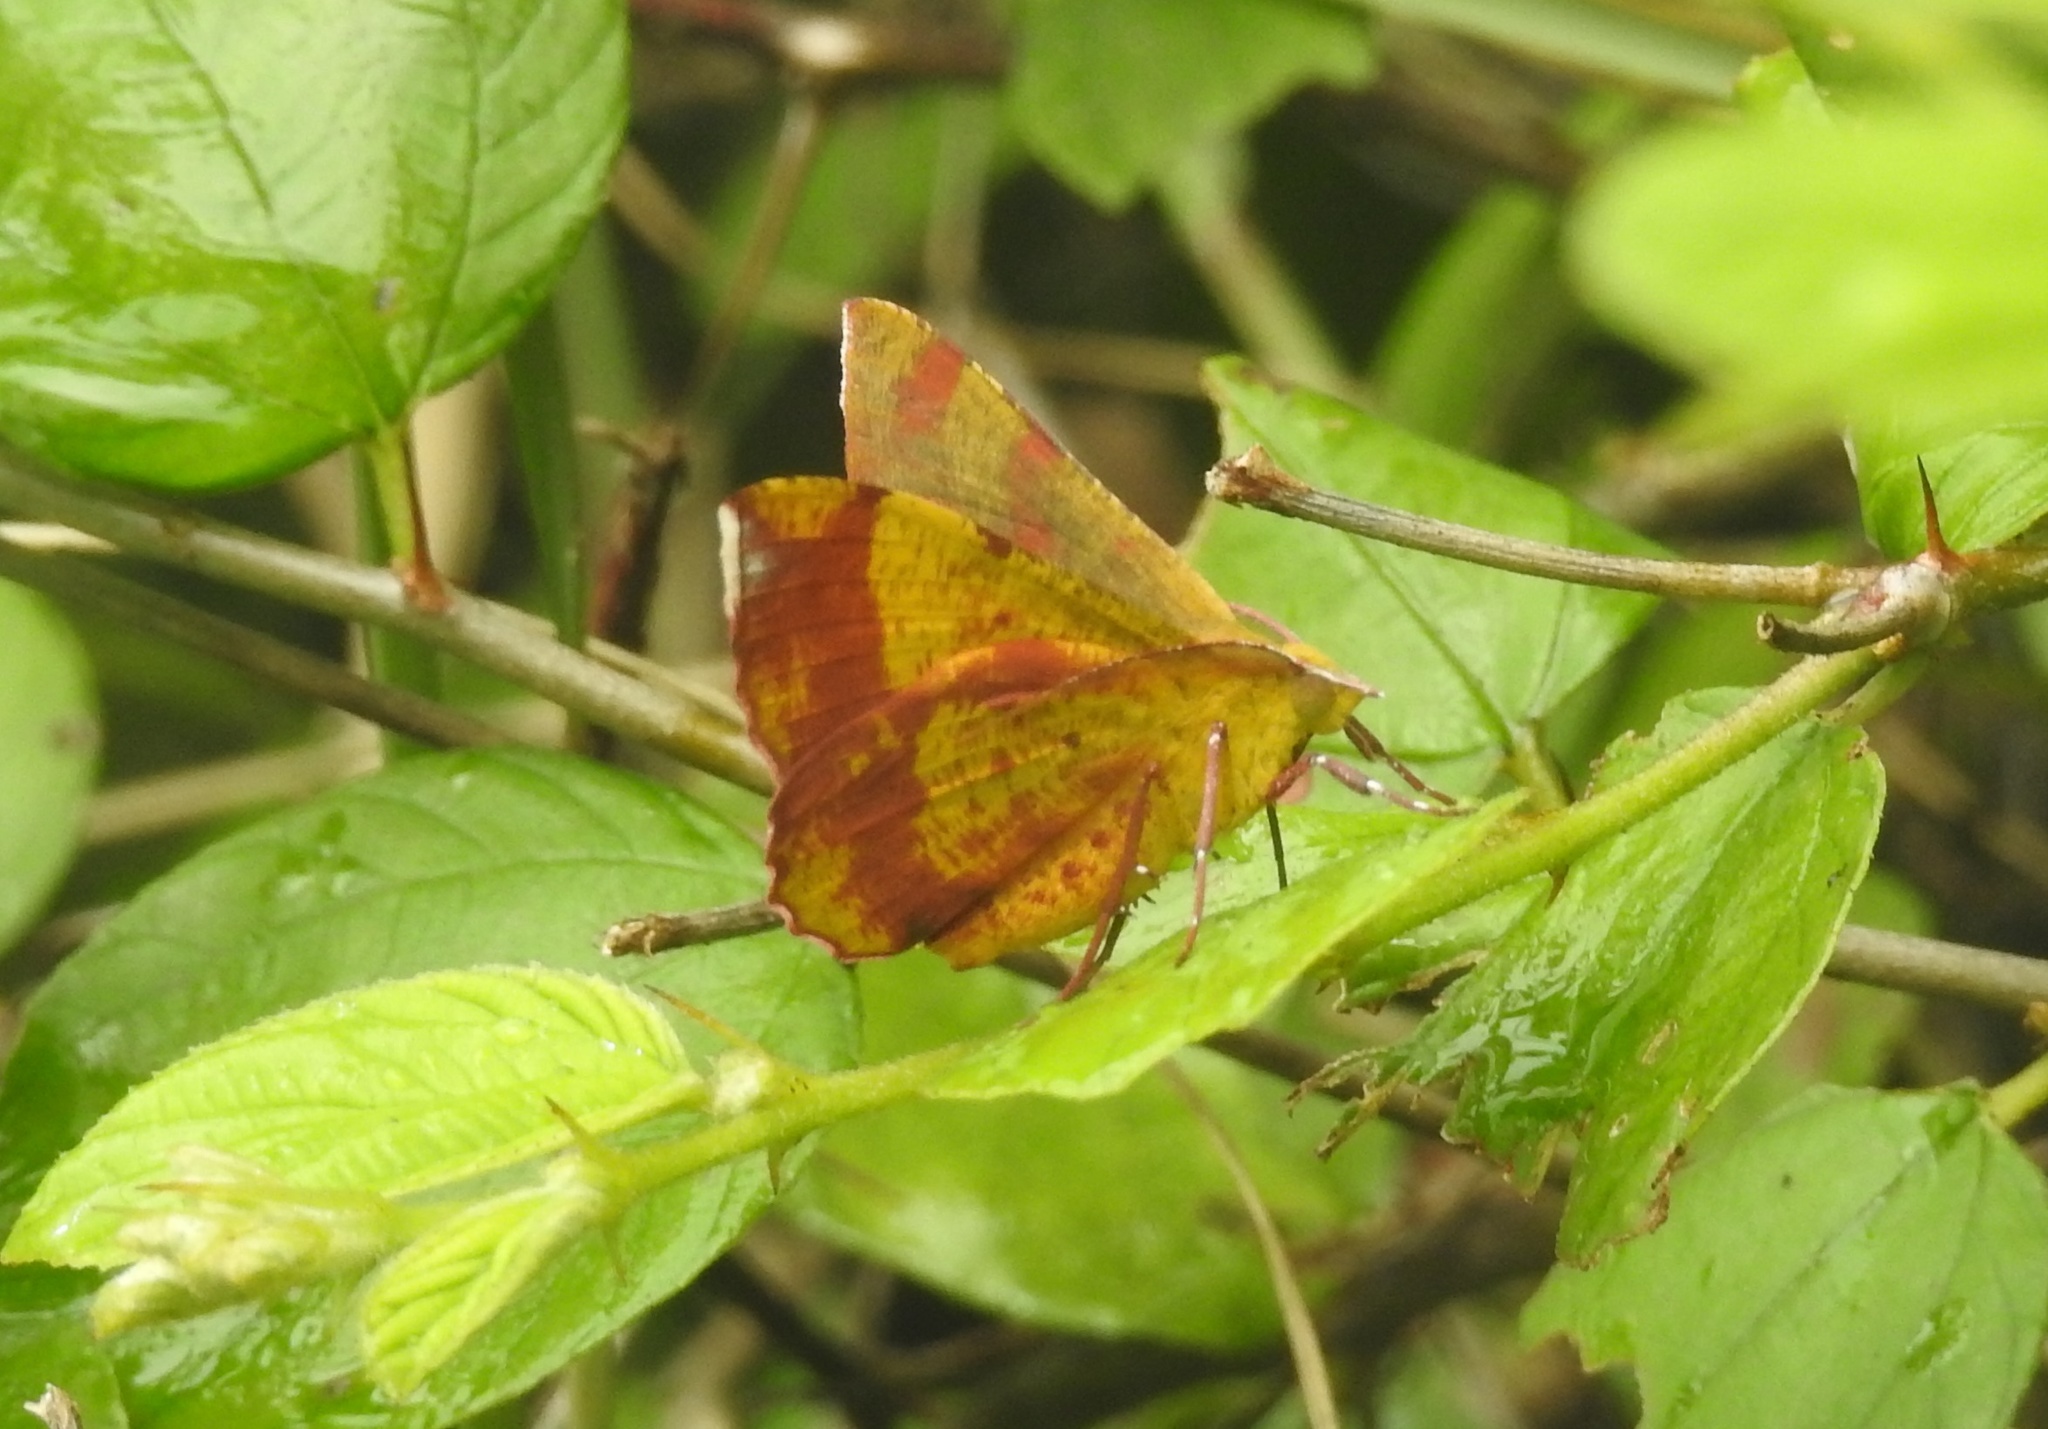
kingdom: Animalia
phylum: Arthropoda
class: Insecta
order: Lepidoptera
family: Geometridae
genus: Hyperythra
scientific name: Hyperythra lutea
